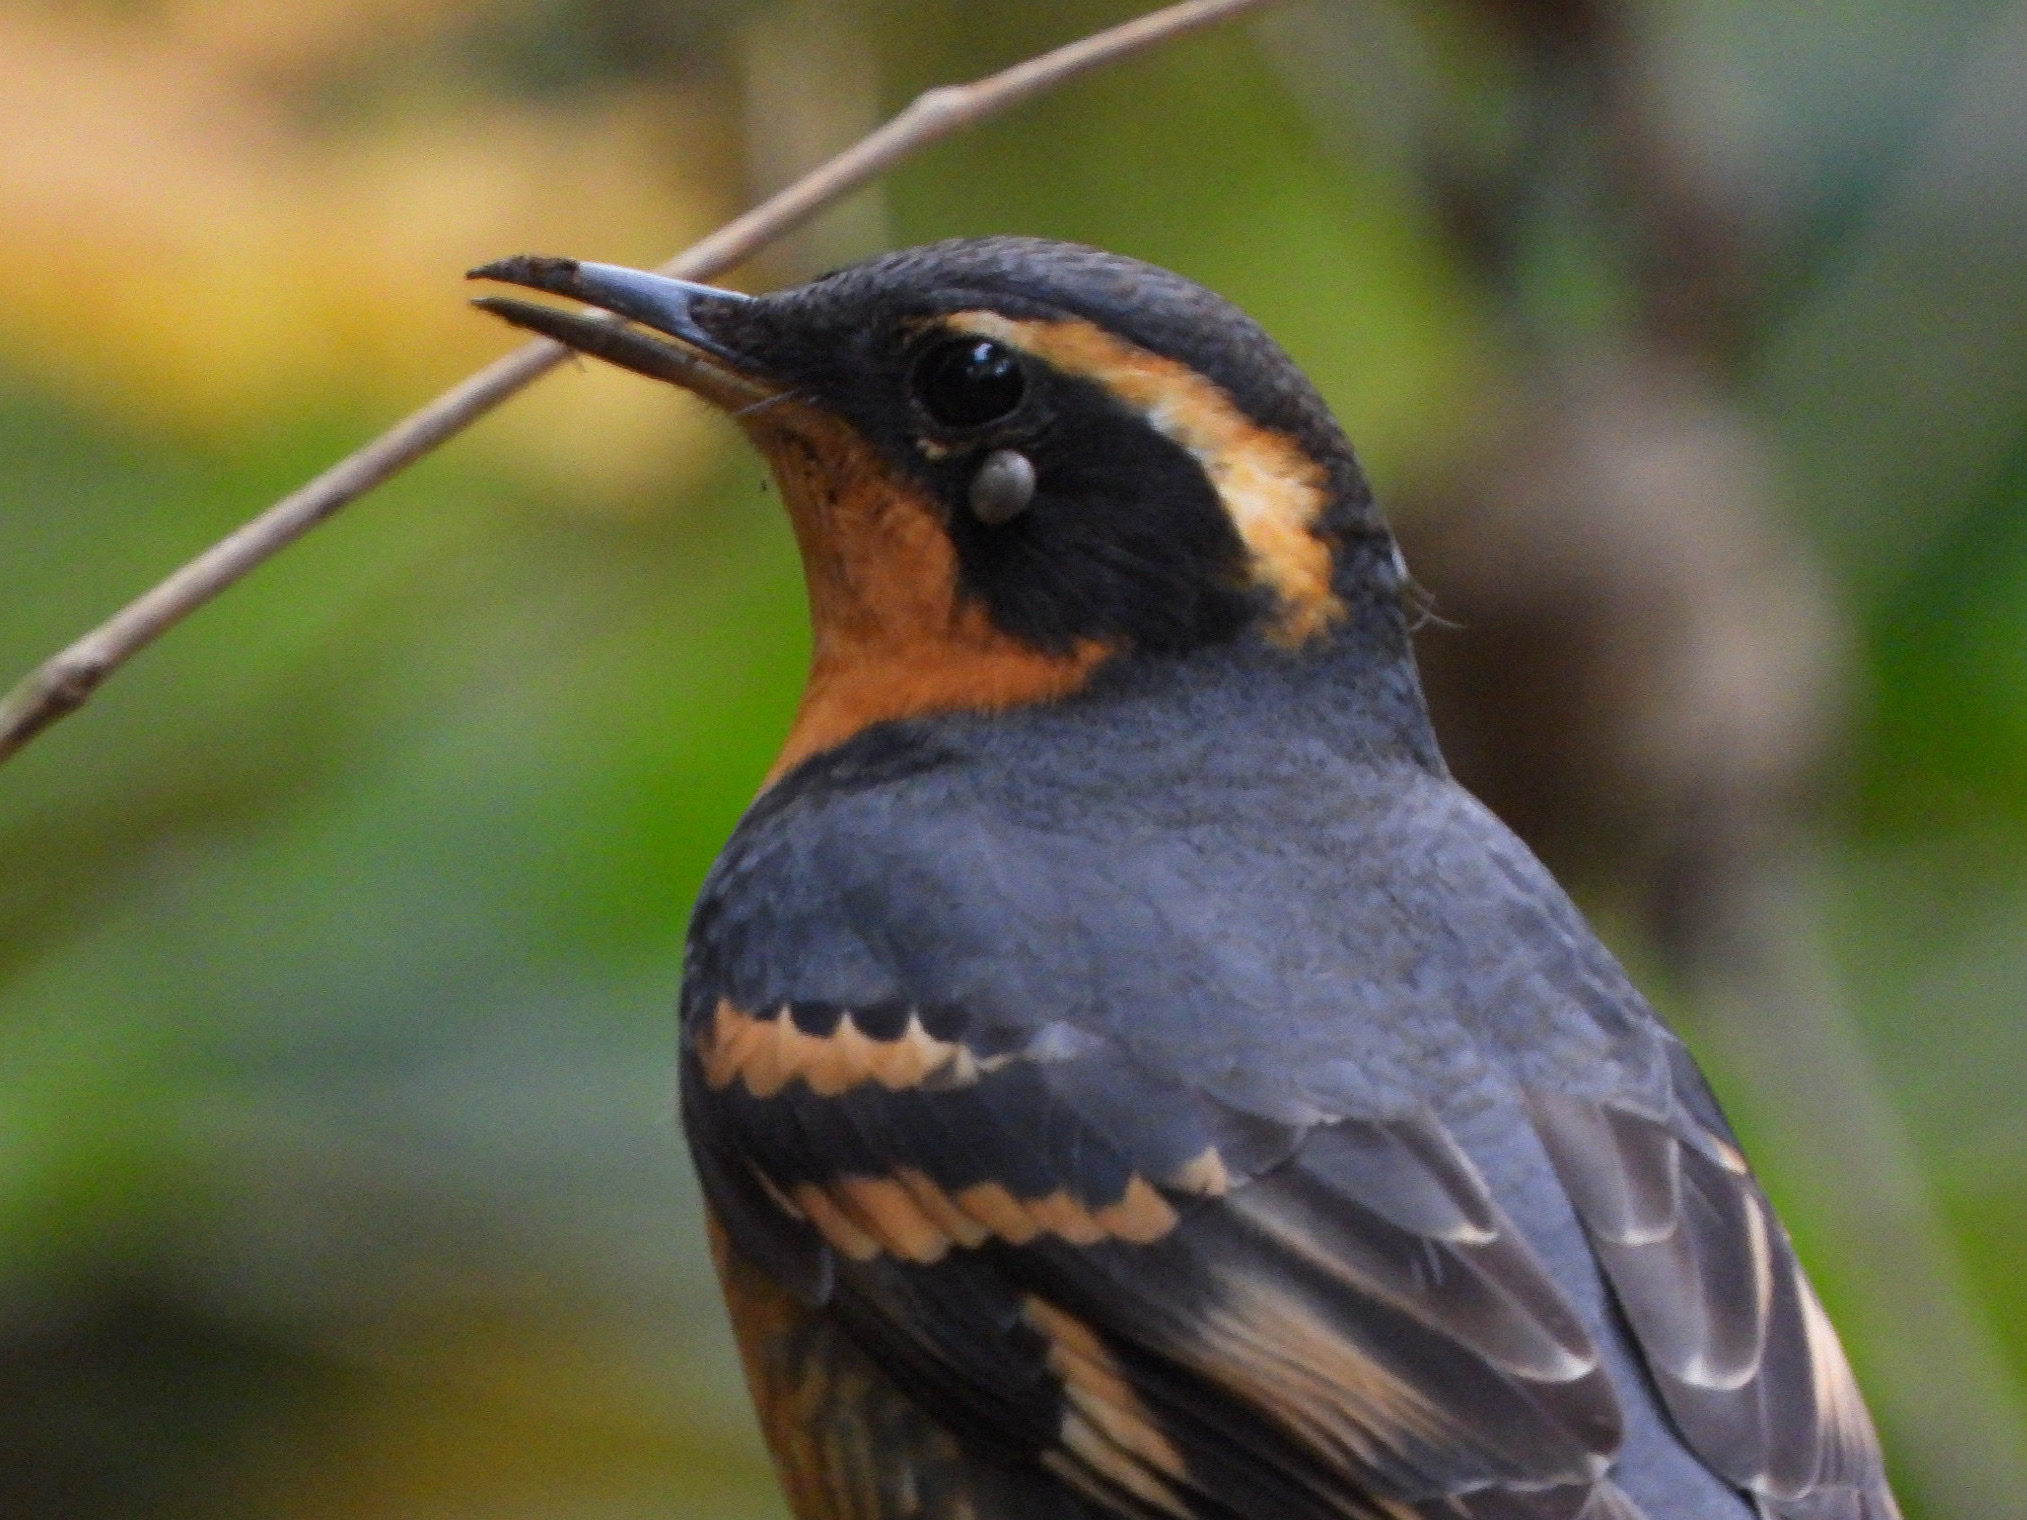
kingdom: Animalia
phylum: Chordata
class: Aves
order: Passeriformes
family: Turdidae
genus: Ixoreus
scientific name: Ixoreus naevius
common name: Varied thrush
